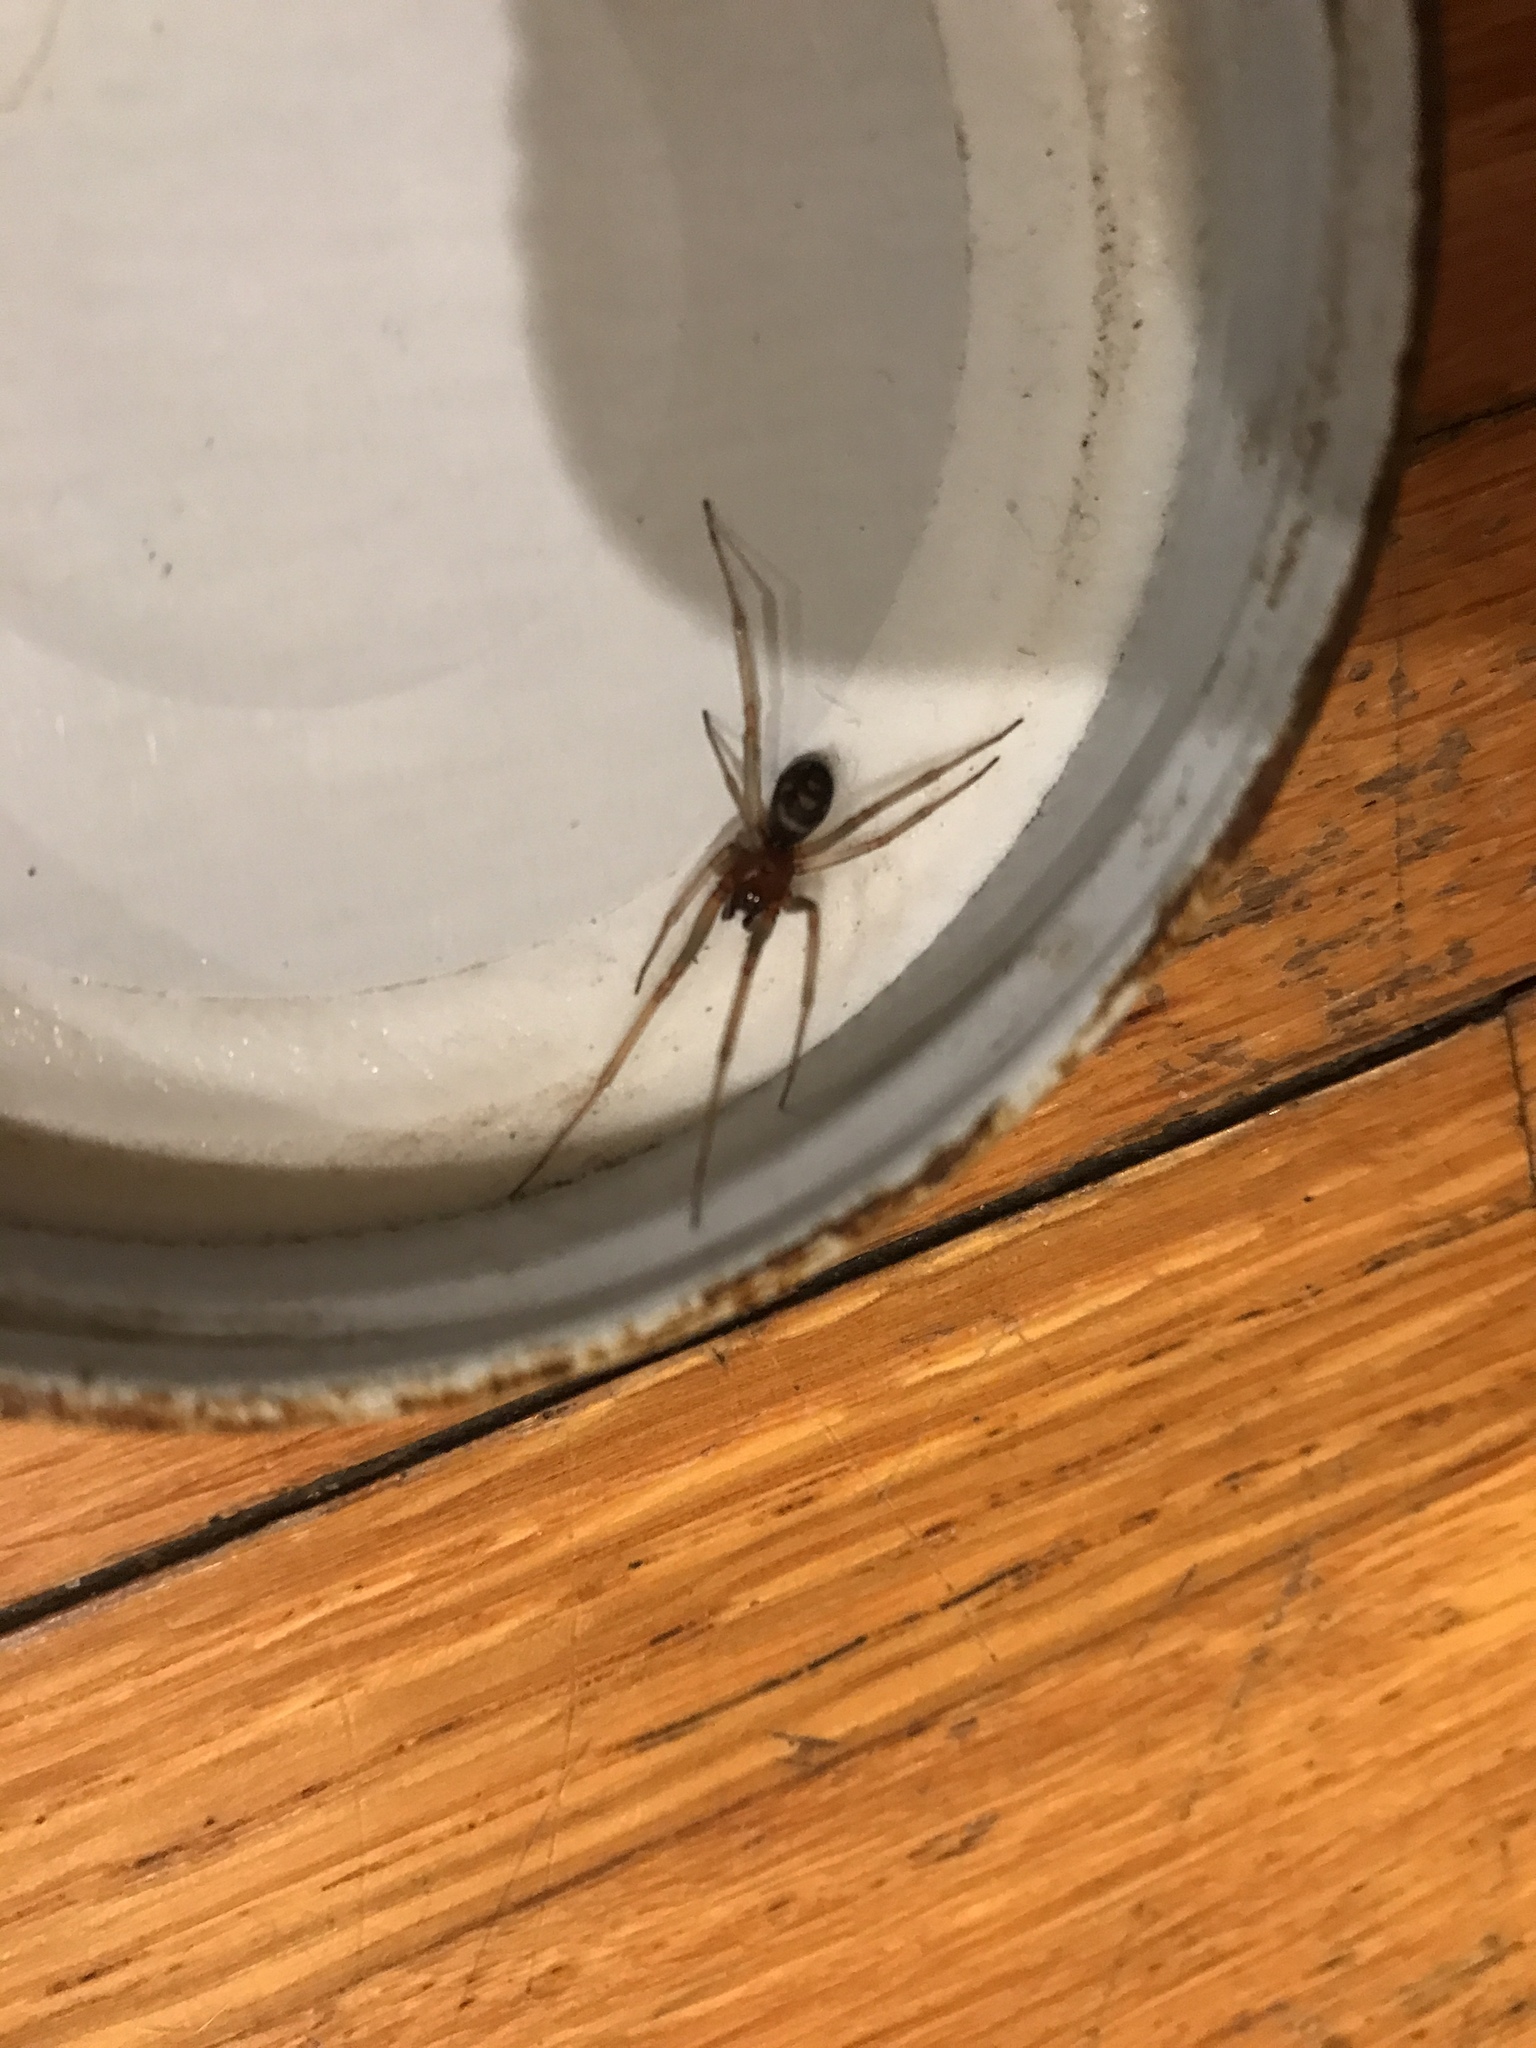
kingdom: Animalia
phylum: Arthropoda
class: Arachnida
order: Araneae
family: Theridiidae
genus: Steatoda
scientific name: Steatoda grossa
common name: False black widow
